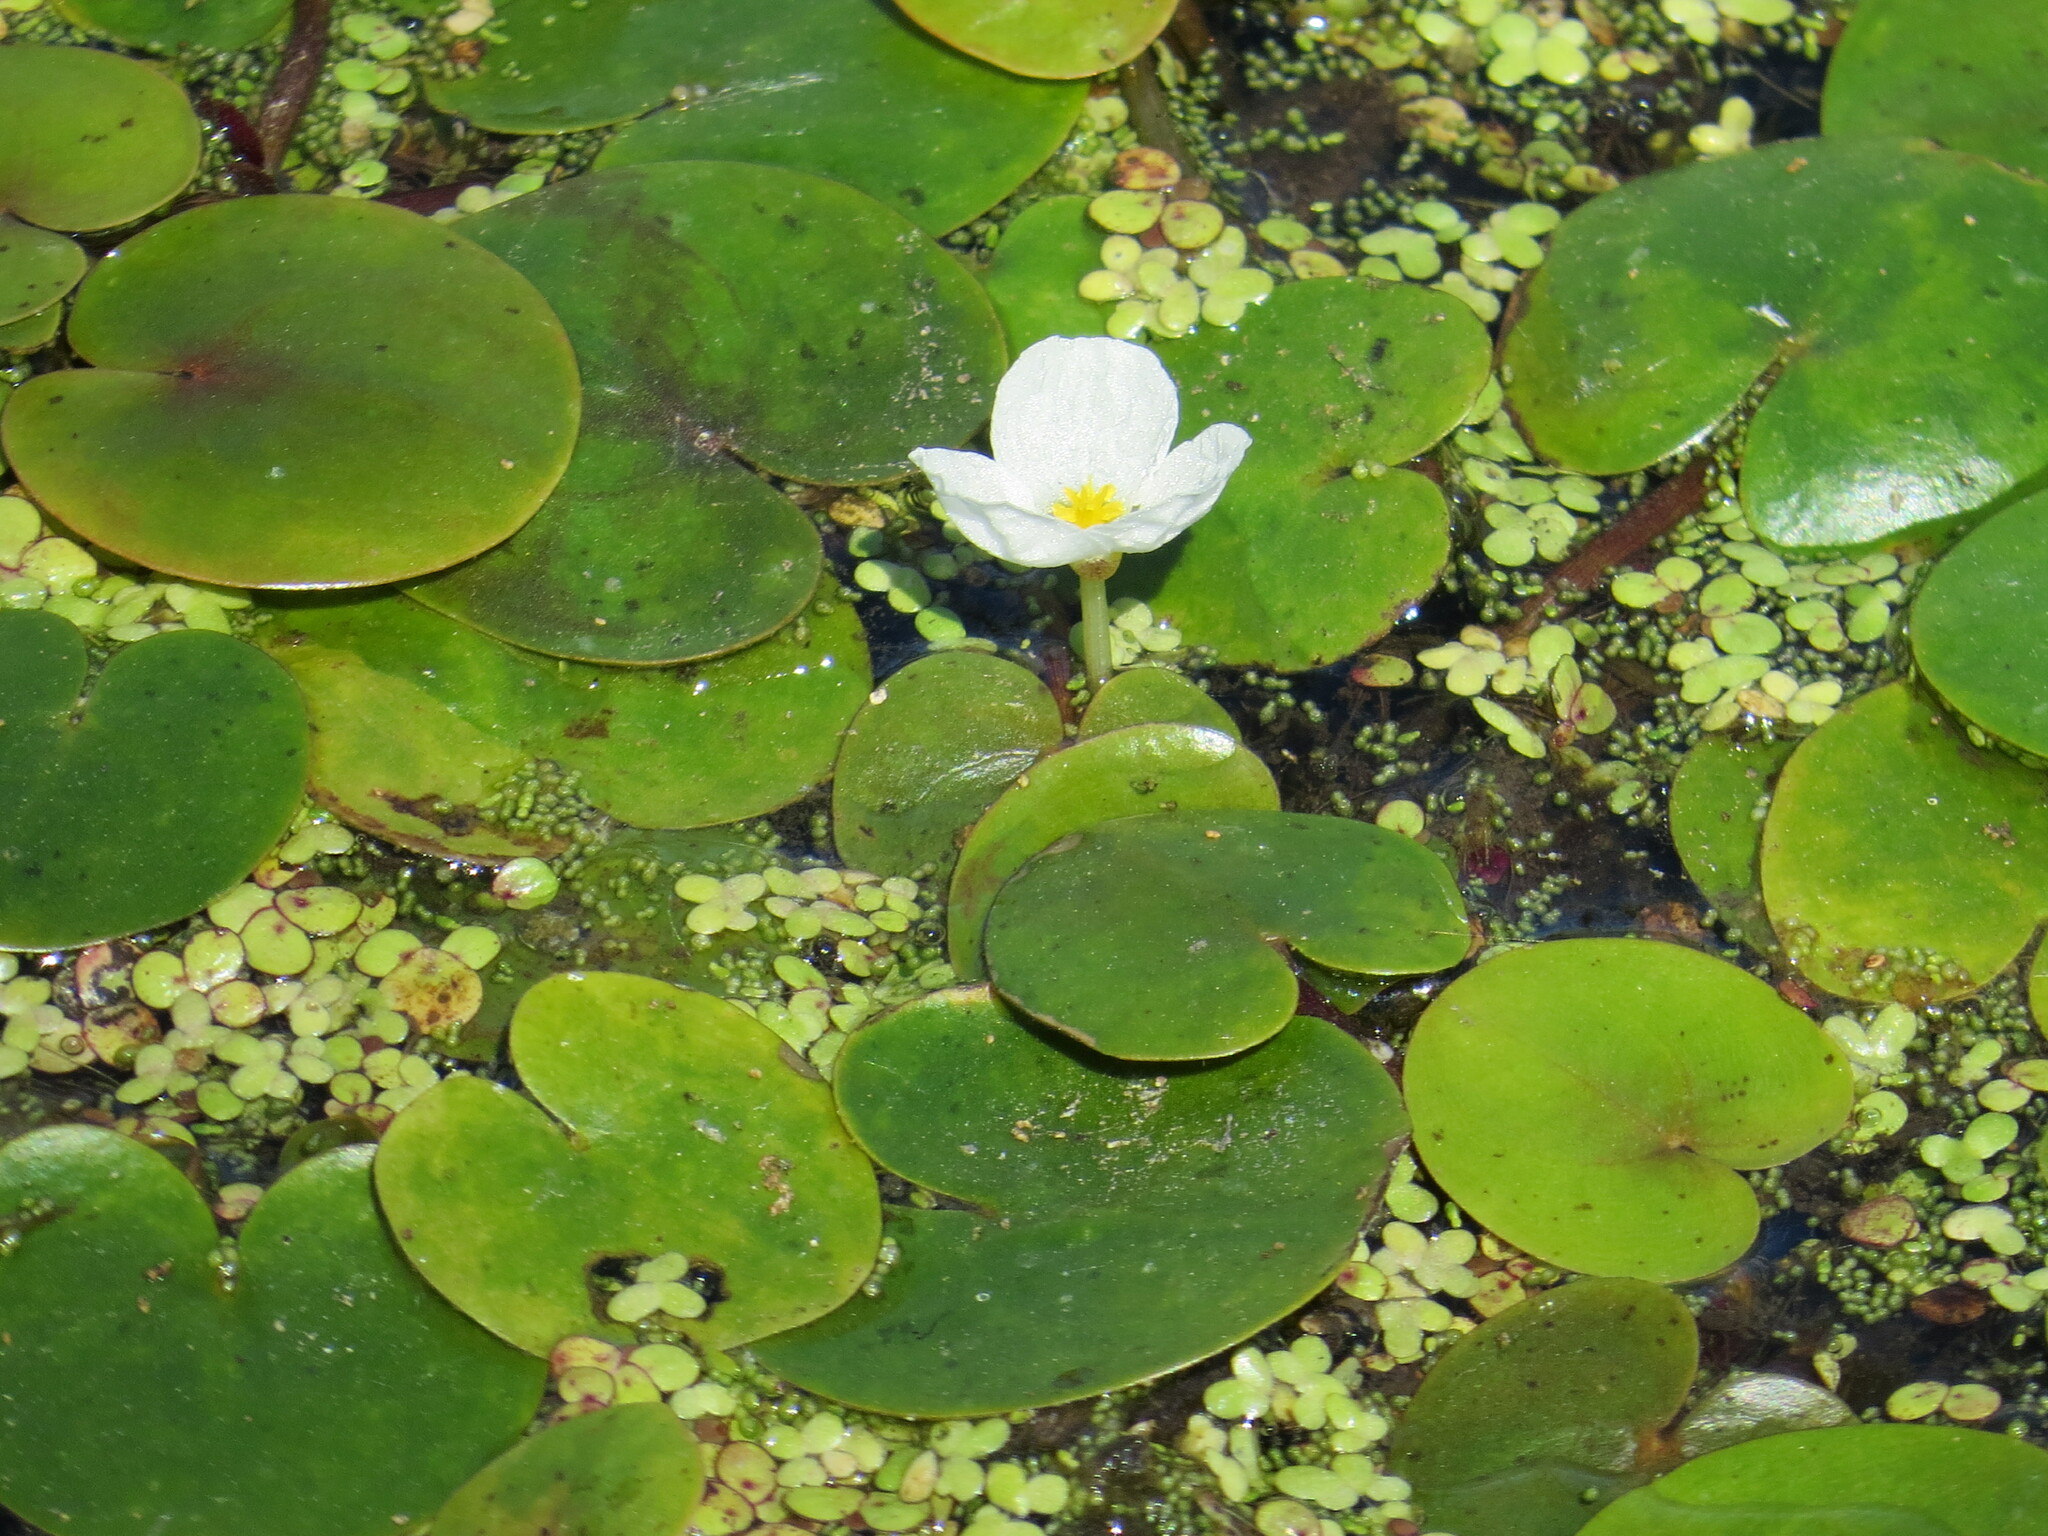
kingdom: Plantae
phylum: Tracheophyta
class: Liliopsida
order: Alismatales
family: Hydrocharitaceae
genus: Hydrocharis
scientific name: Hydrocharis morsus-ranae
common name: Frogbit
